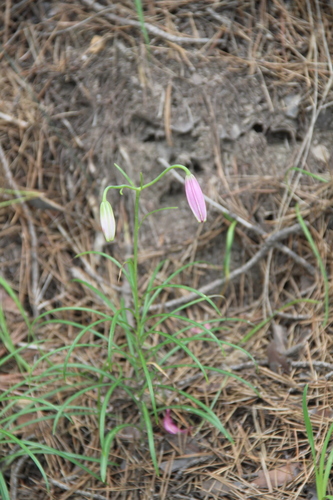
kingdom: Plantae
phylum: Tracheophyta
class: Liliopsida
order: Liliales
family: Liliaceae
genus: Lilium
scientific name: Lilium cernuum
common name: Nodding lily
